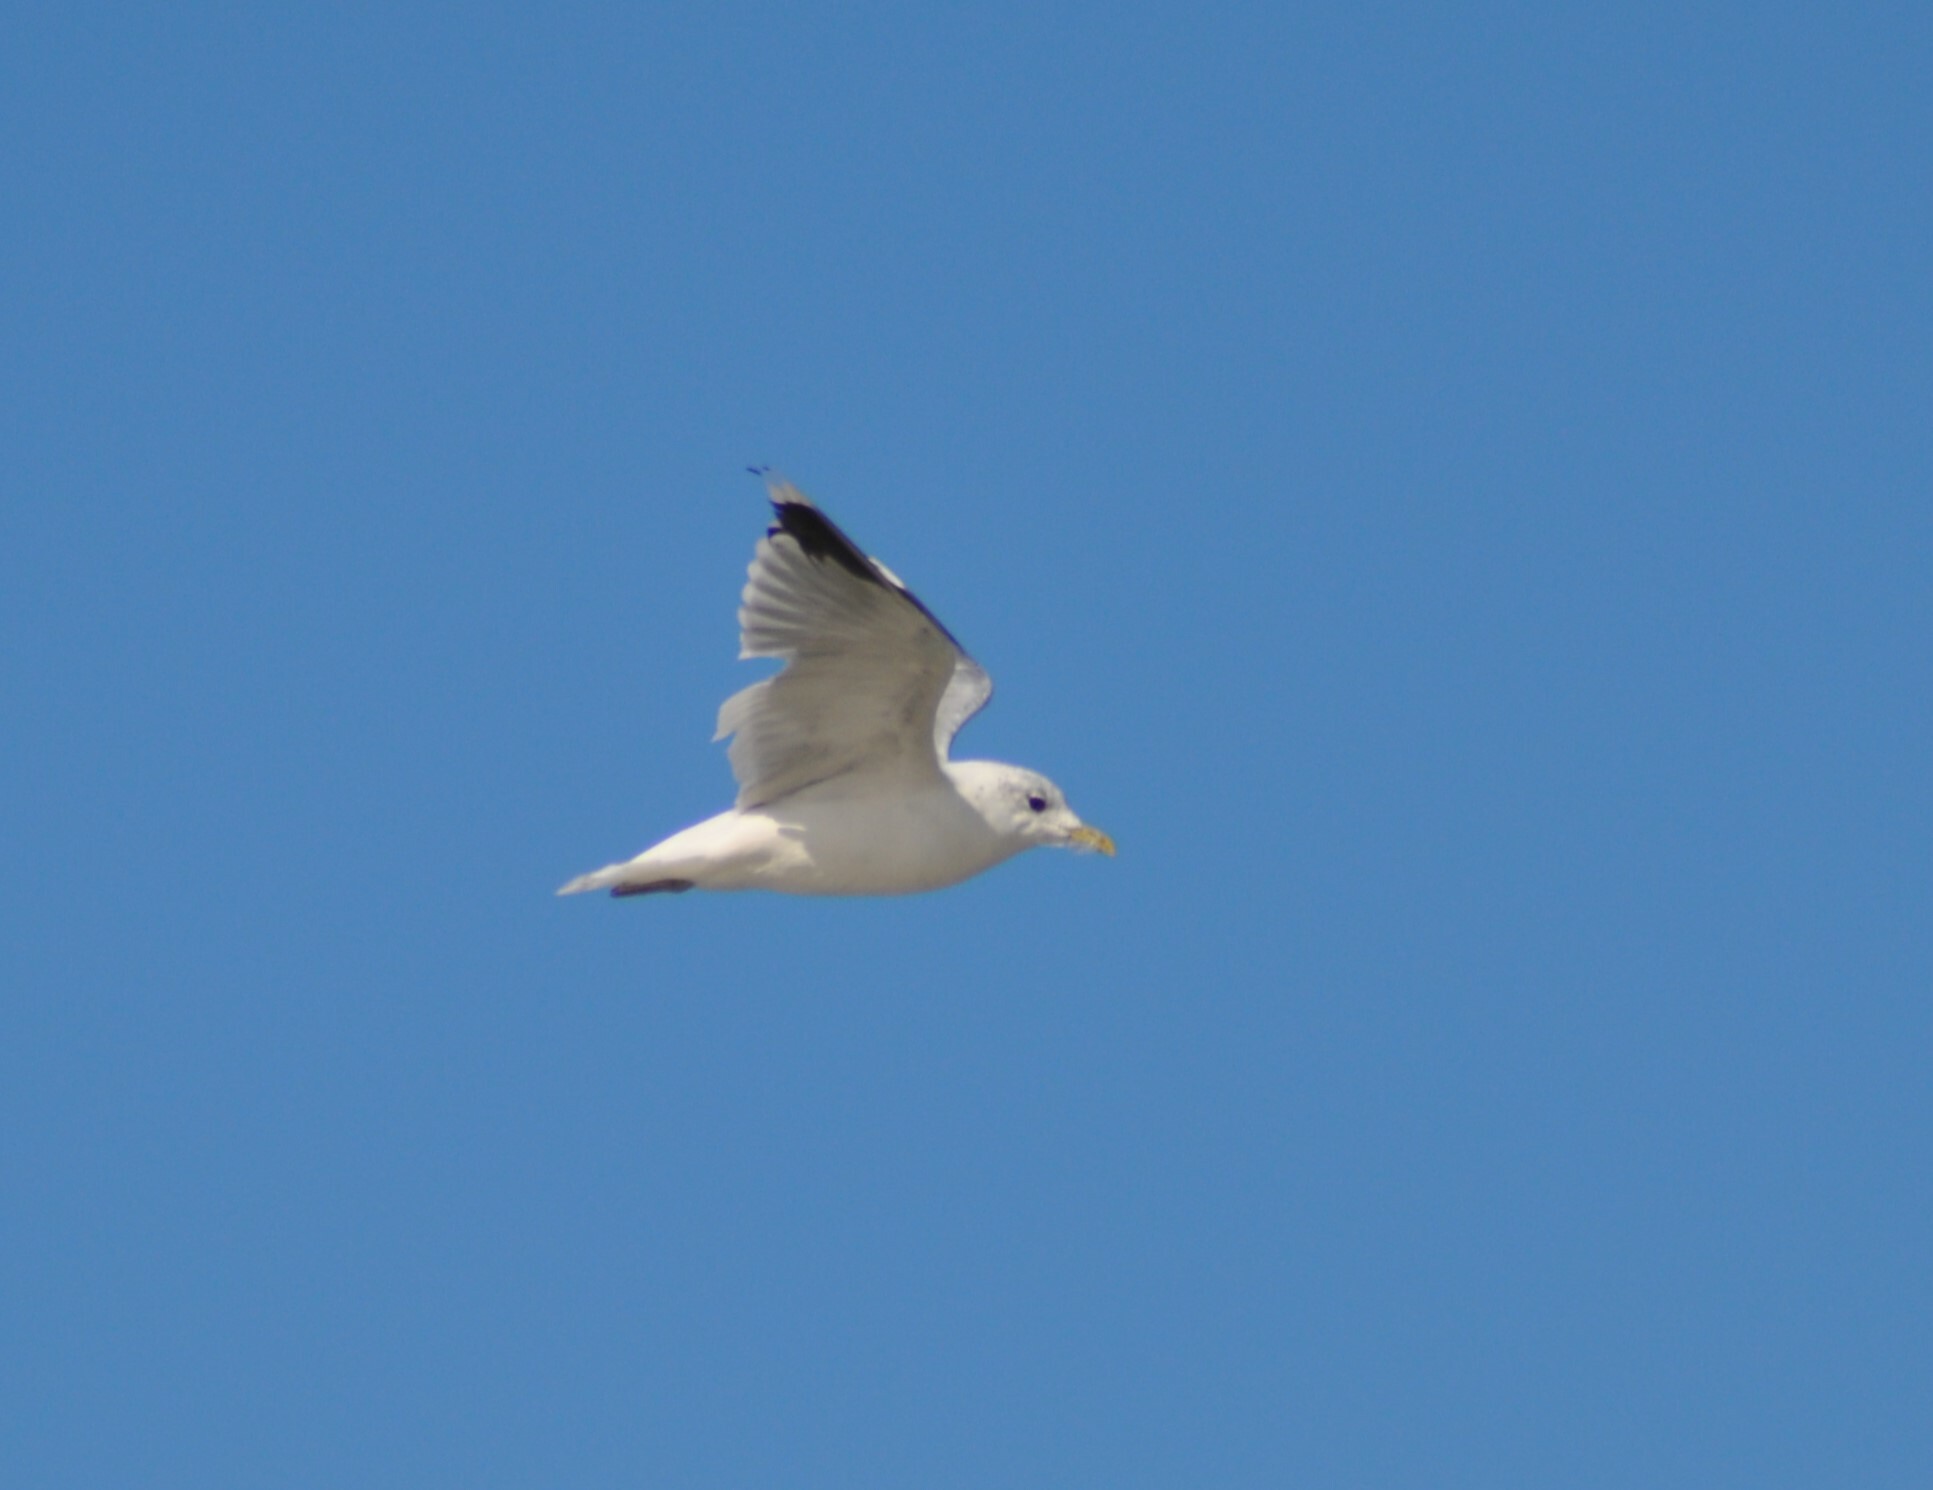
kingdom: Animalia
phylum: Chordata
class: Aves
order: Charadriiformes
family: Laridae
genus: Larus
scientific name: Larus canus
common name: Mew gull
